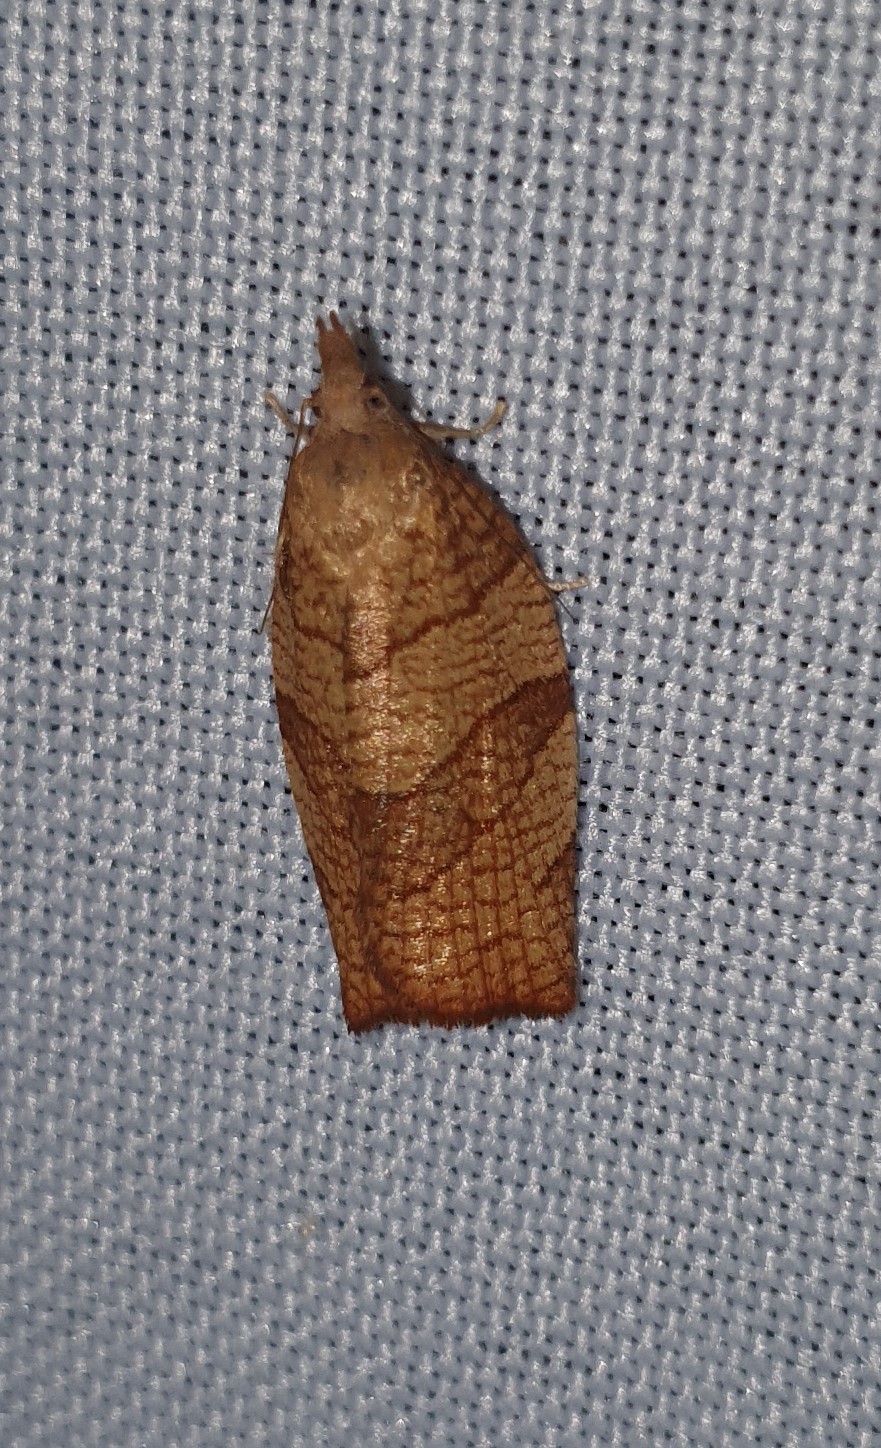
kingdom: Animalia
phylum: Arthropoda
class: Insecta
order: Lepidoptera
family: Tortricidae
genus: Pandemis
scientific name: Pandemis corylana
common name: Chequered fruit-tree tortrix
